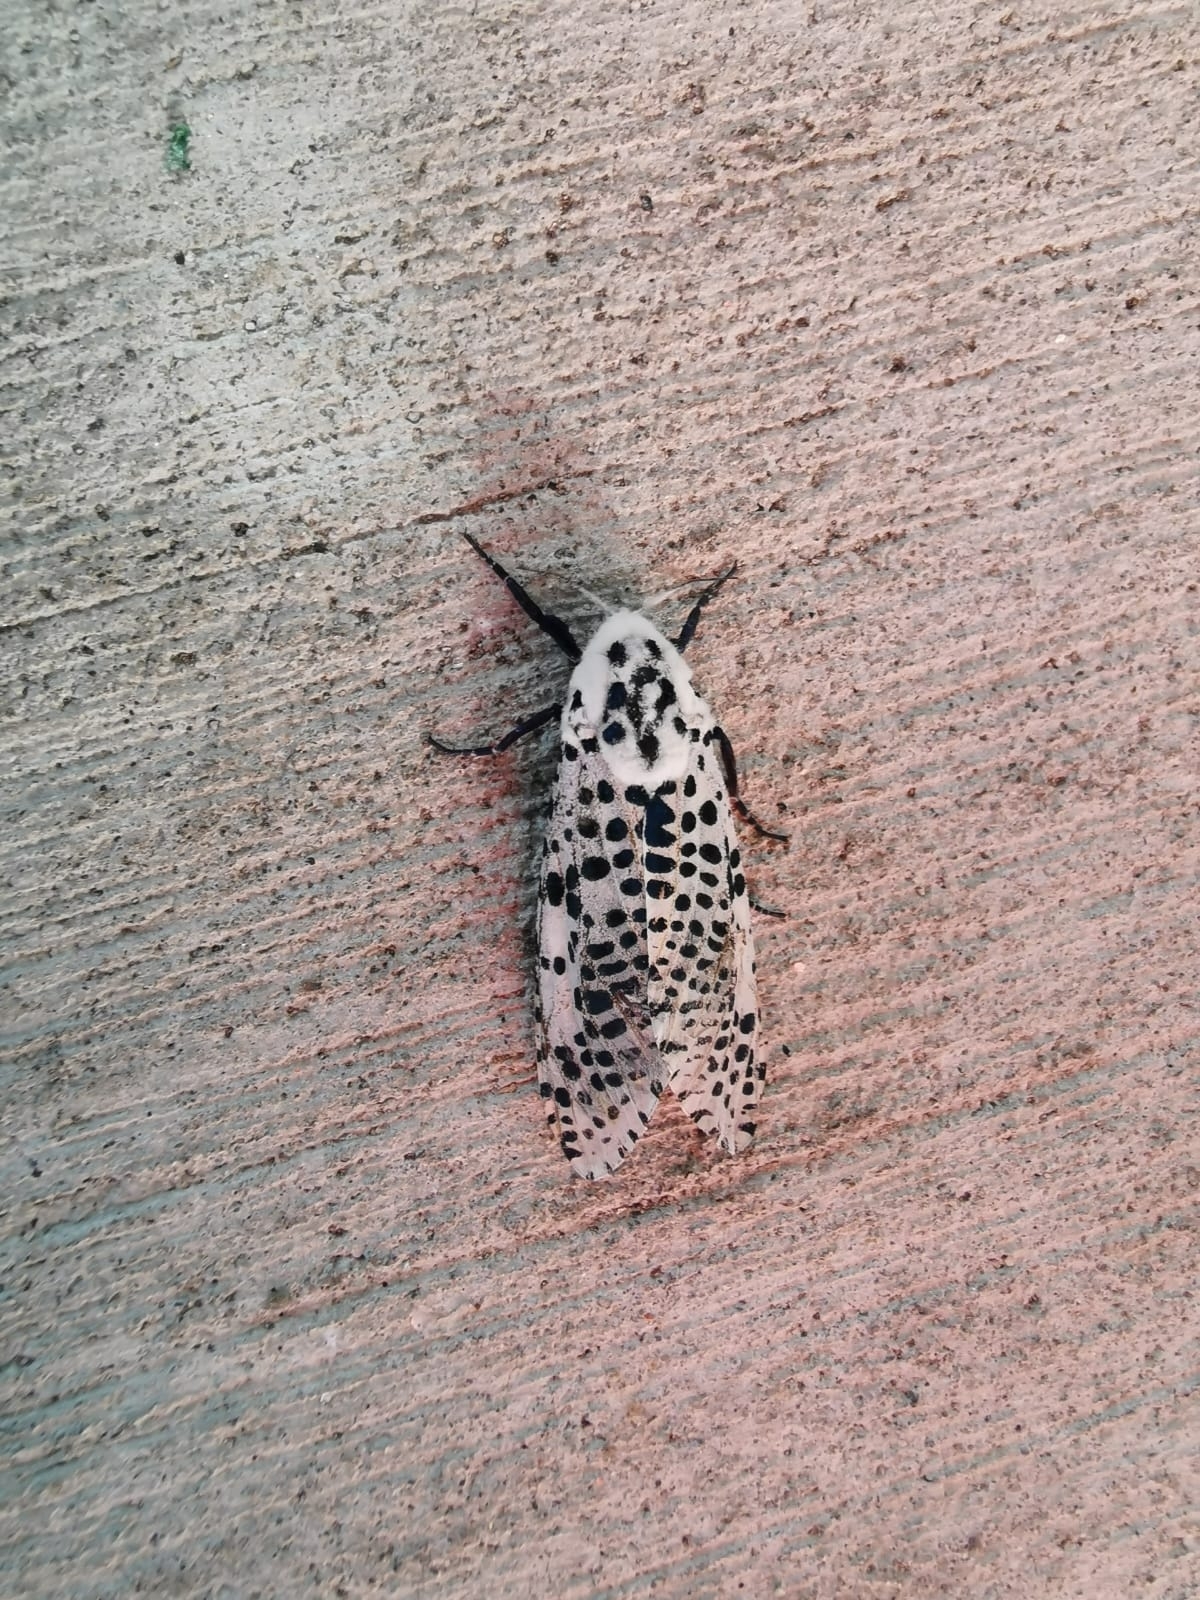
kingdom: Animalia
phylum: Arthropoda
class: Insecta
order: Lepidoptera
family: Cossidae
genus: Zeuzera
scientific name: Zeuzera pyrina
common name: Leopard moth
